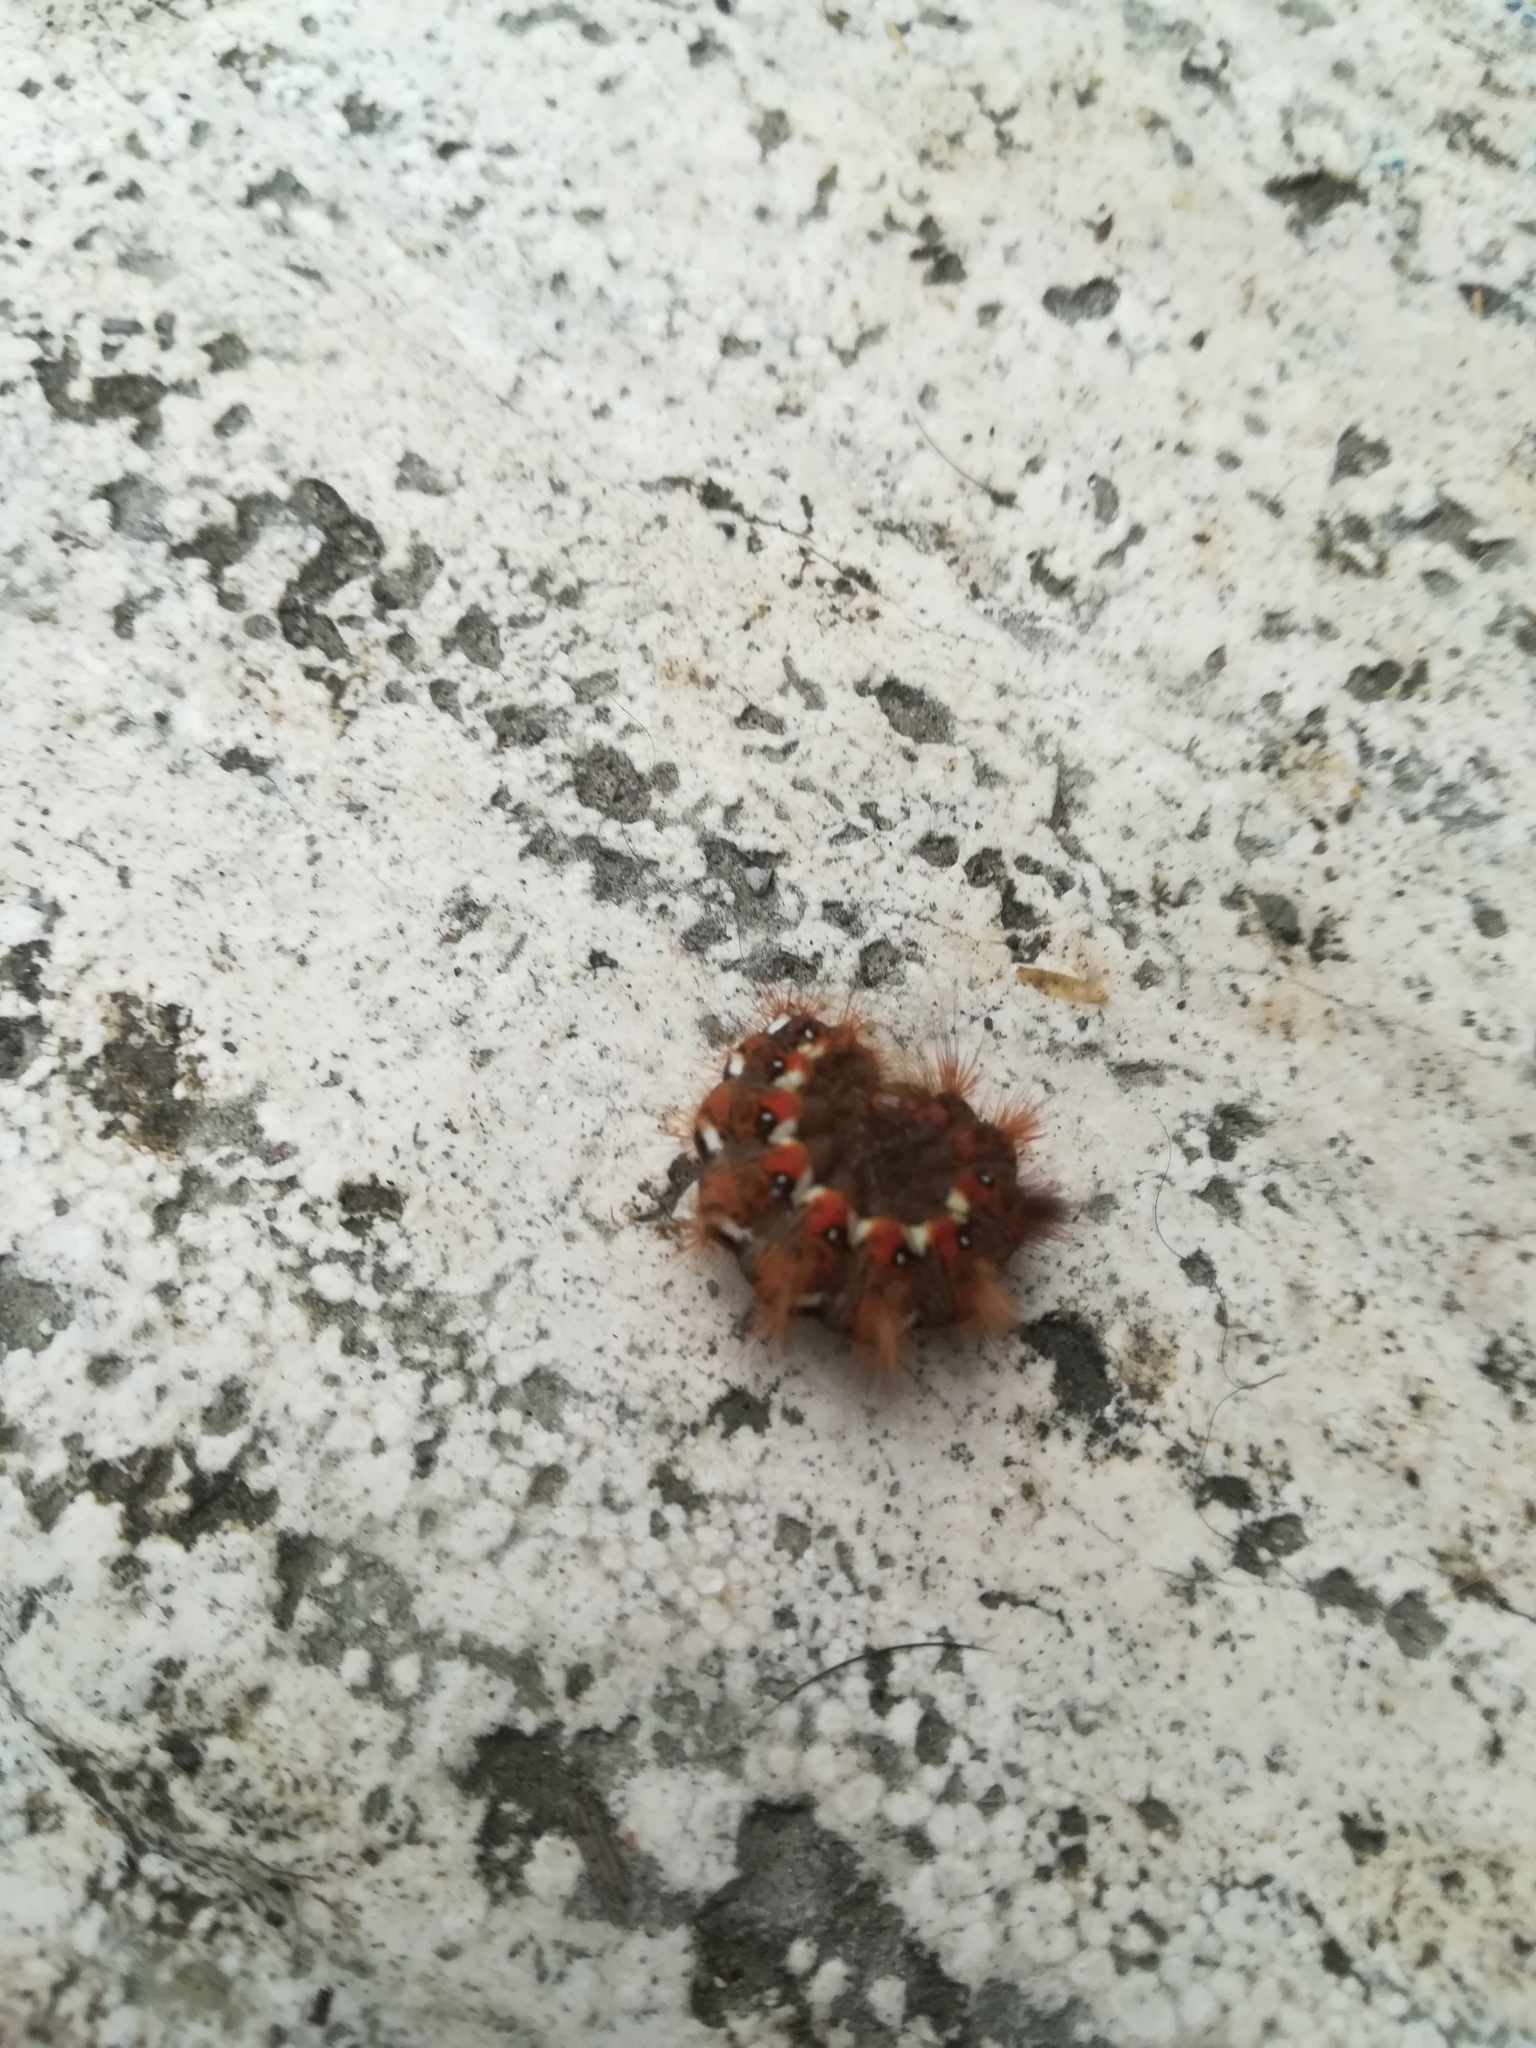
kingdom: Animalia
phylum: Arthropoda
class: Insecta
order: Lepidoptera
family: Noctuidae
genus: Acronicta
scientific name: Acronicta rumicis
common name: Knot grass
